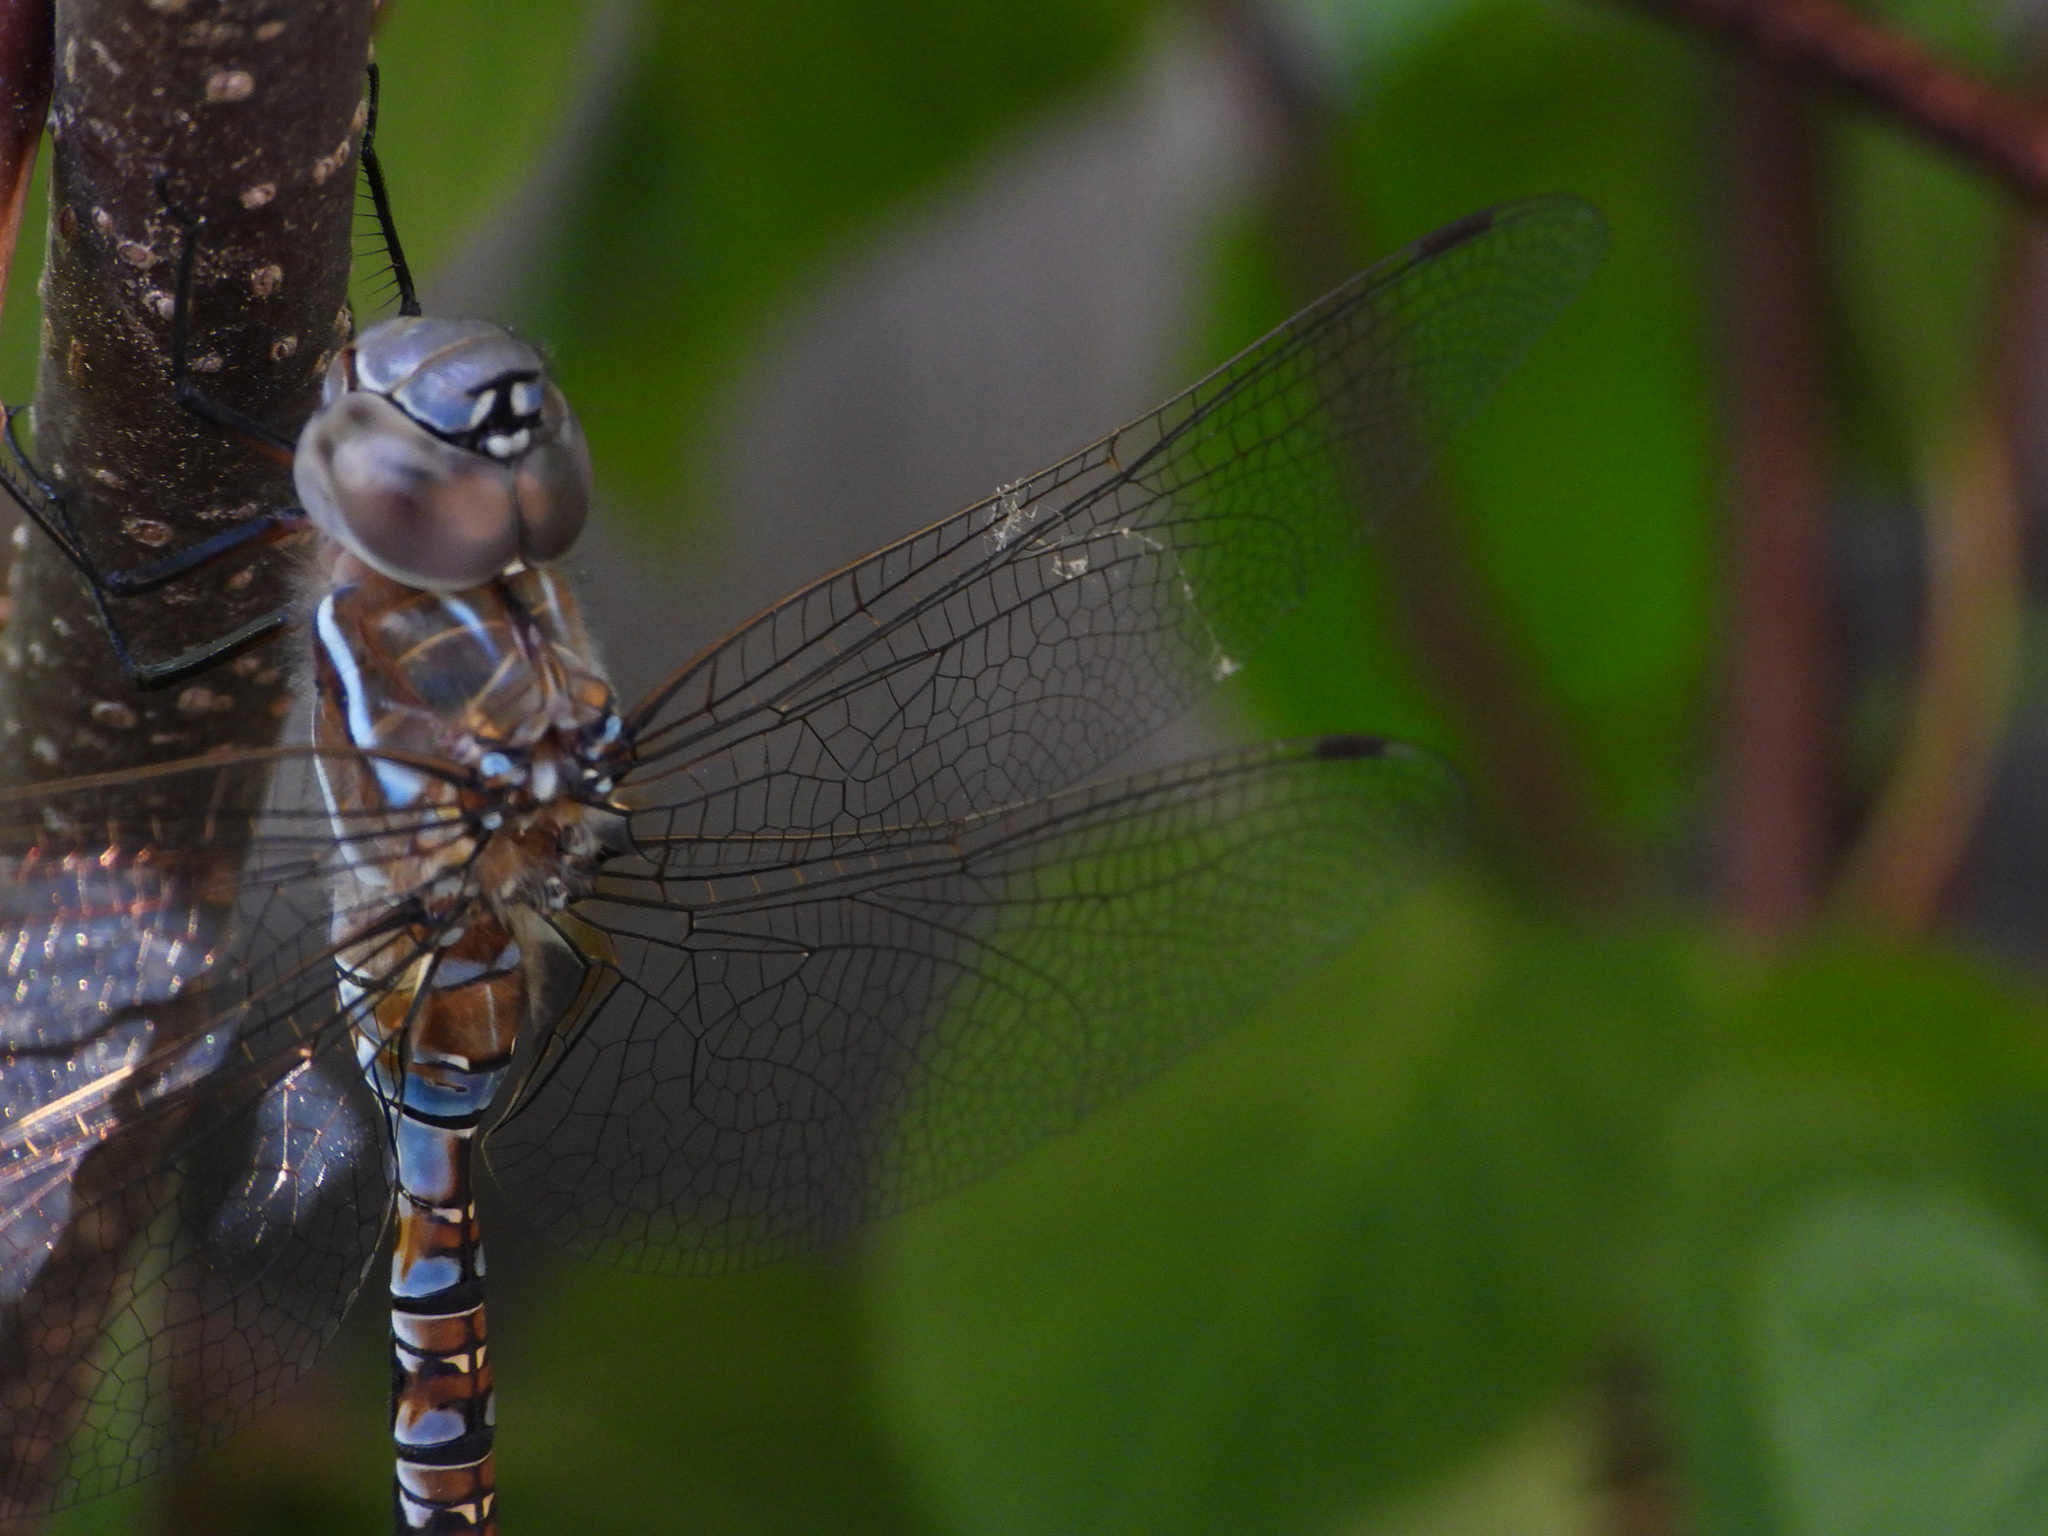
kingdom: Animalia
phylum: Arthropoda
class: Insecta
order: Odonata
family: Aeshnidae
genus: Rhionaeschna
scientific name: Rhionaeschna multicolor
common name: Blue-eyed darner
